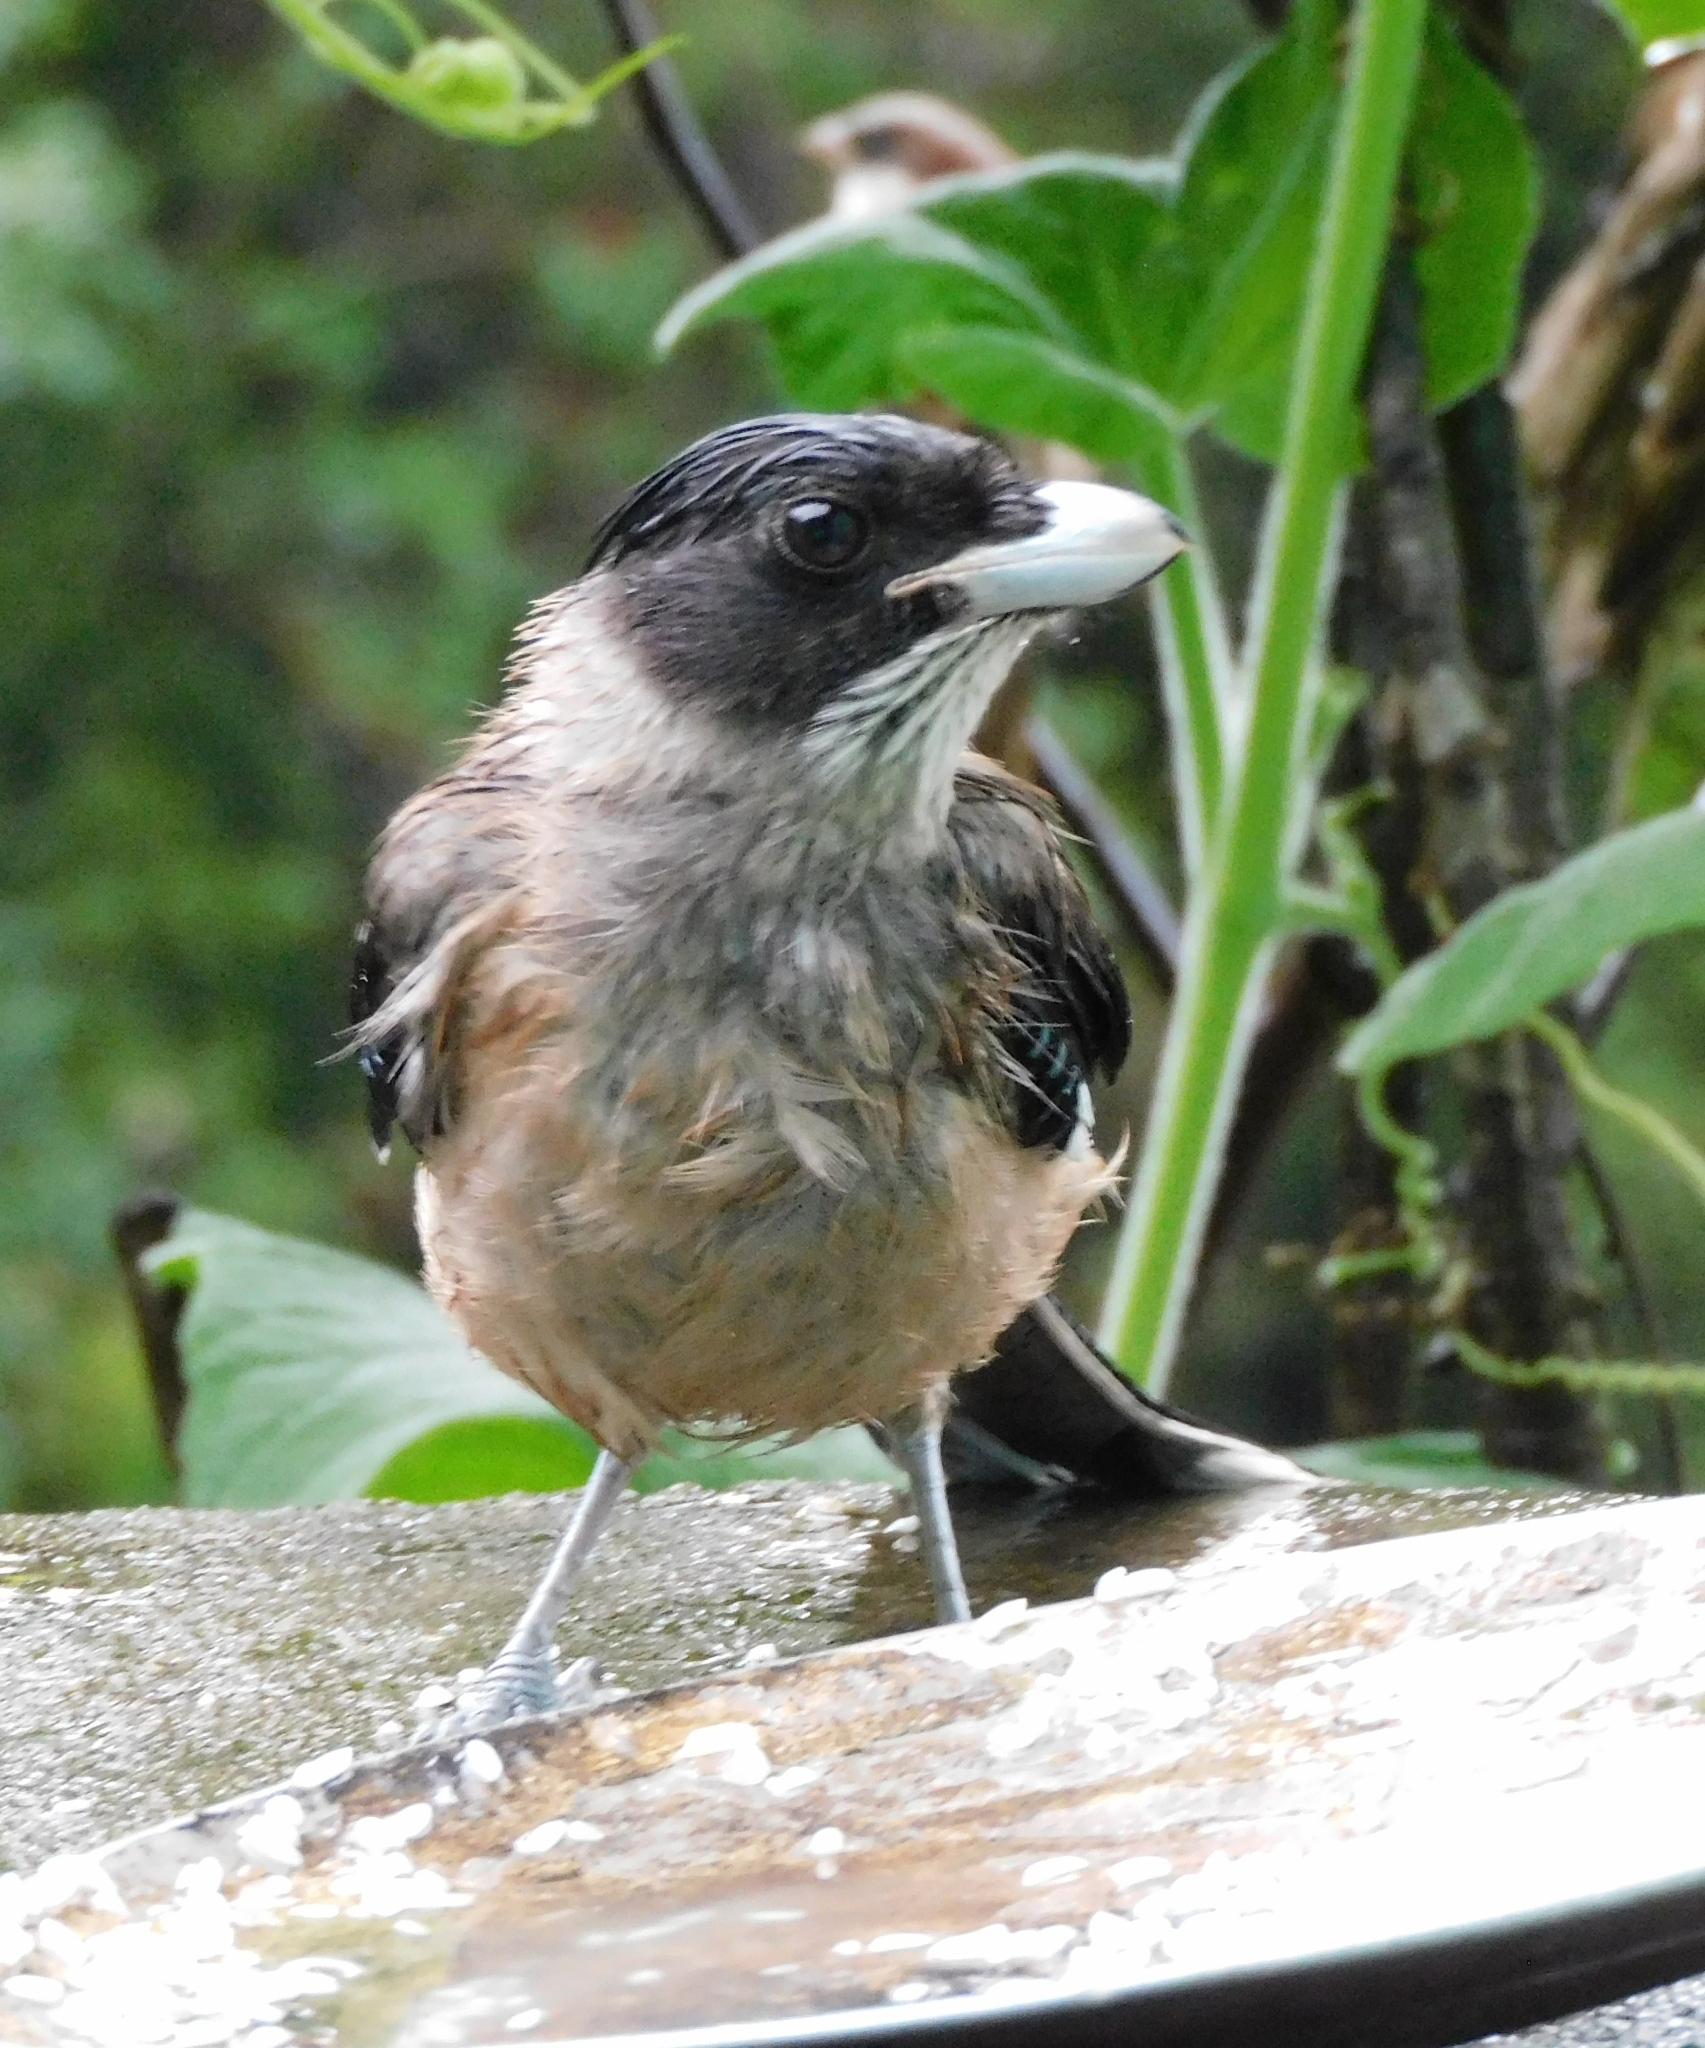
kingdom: Animalia
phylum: Chordata
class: Aves
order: Passeriformes
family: Corvidae
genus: Garrulus
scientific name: Garrulus lanceolatus
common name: Black-headed jay
